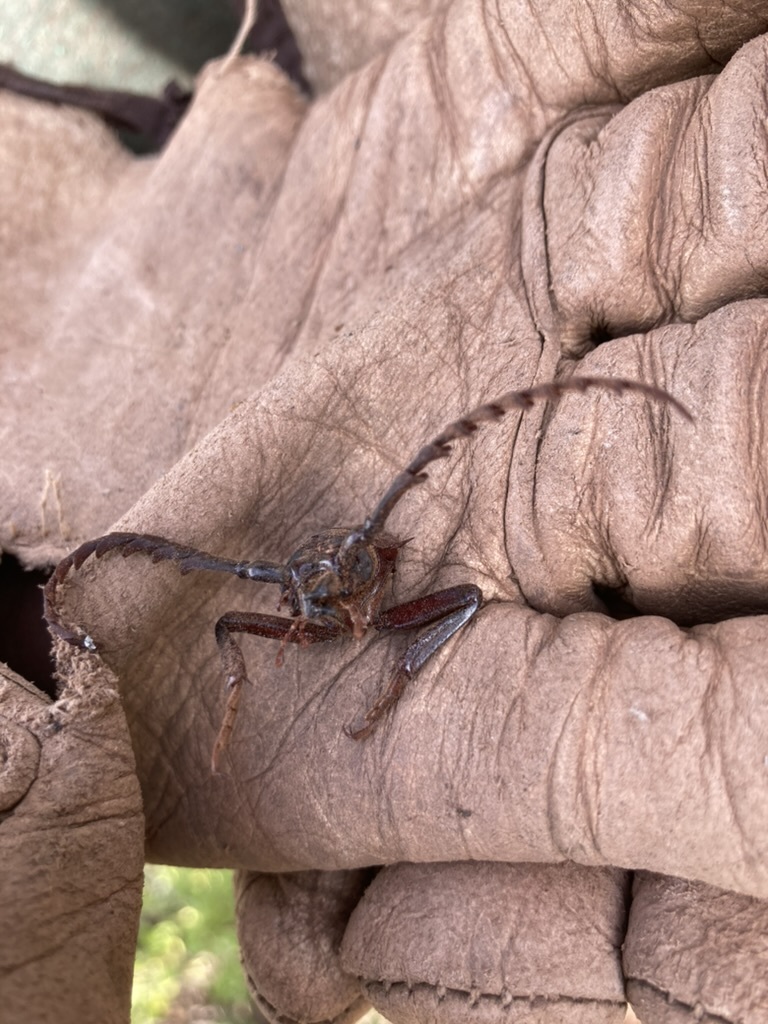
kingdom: Animalia
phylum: Arthropoda
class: Insecta
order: Coleoptera
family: Cerambycidae
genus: Prionus
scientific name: Prionus californicus
